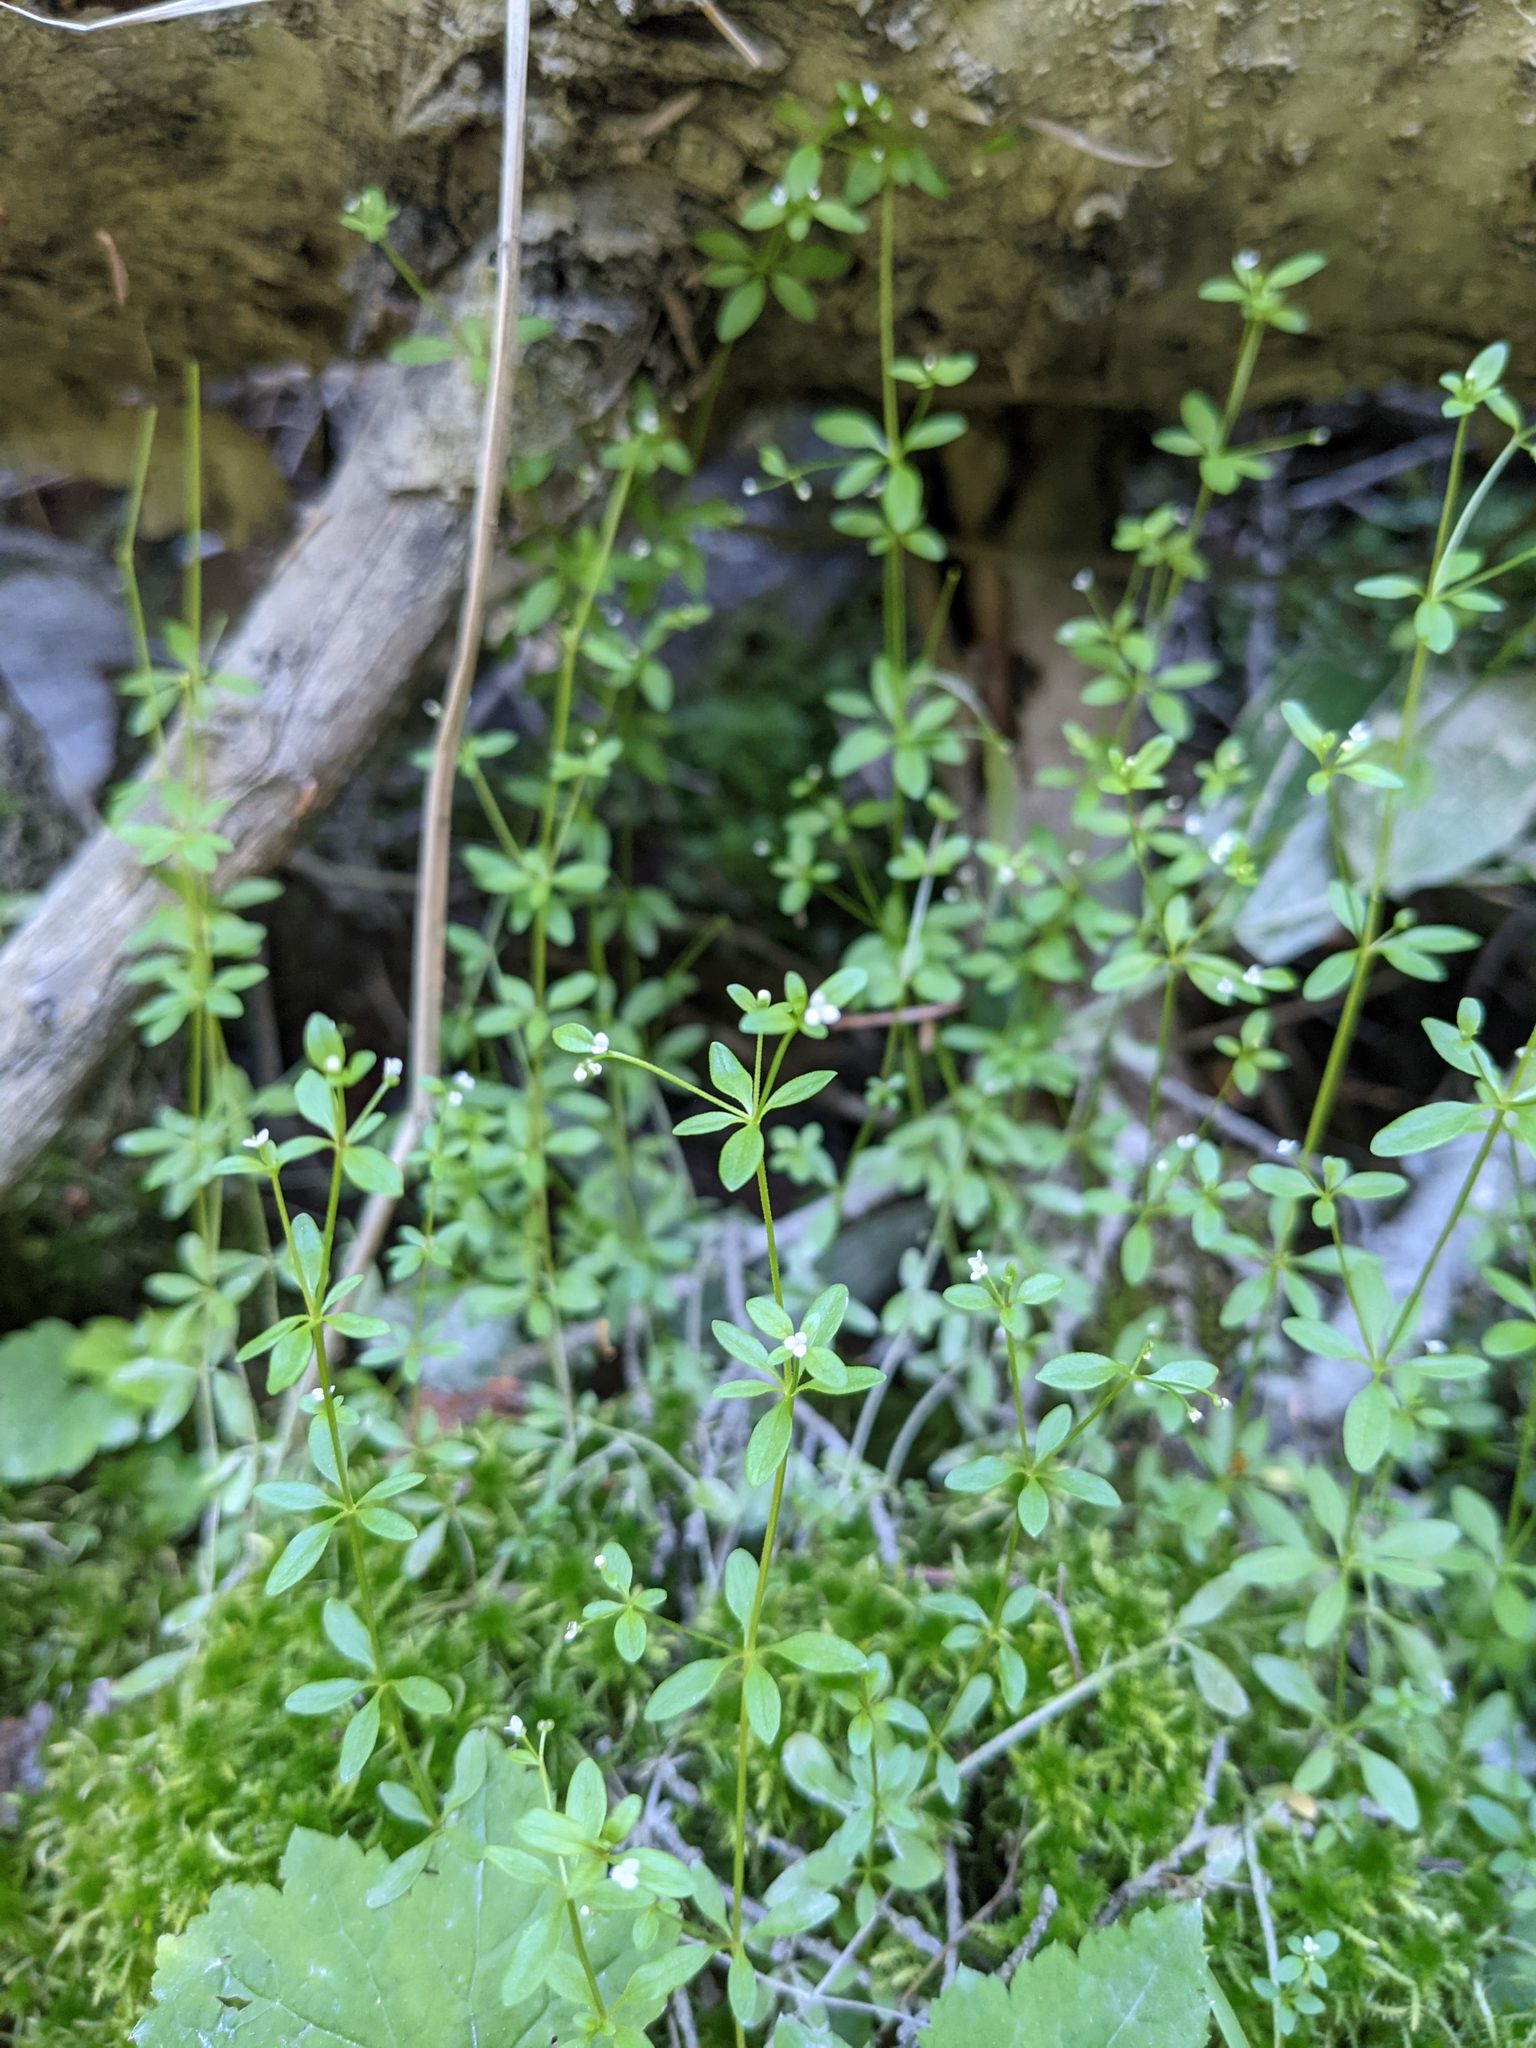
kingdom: Plantae
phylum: Tracheophyta
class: Magnoliopsida
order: Gentianales
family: Rubiaceae
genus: Galium
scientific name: Galium trifidum
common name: Small bedstraw
